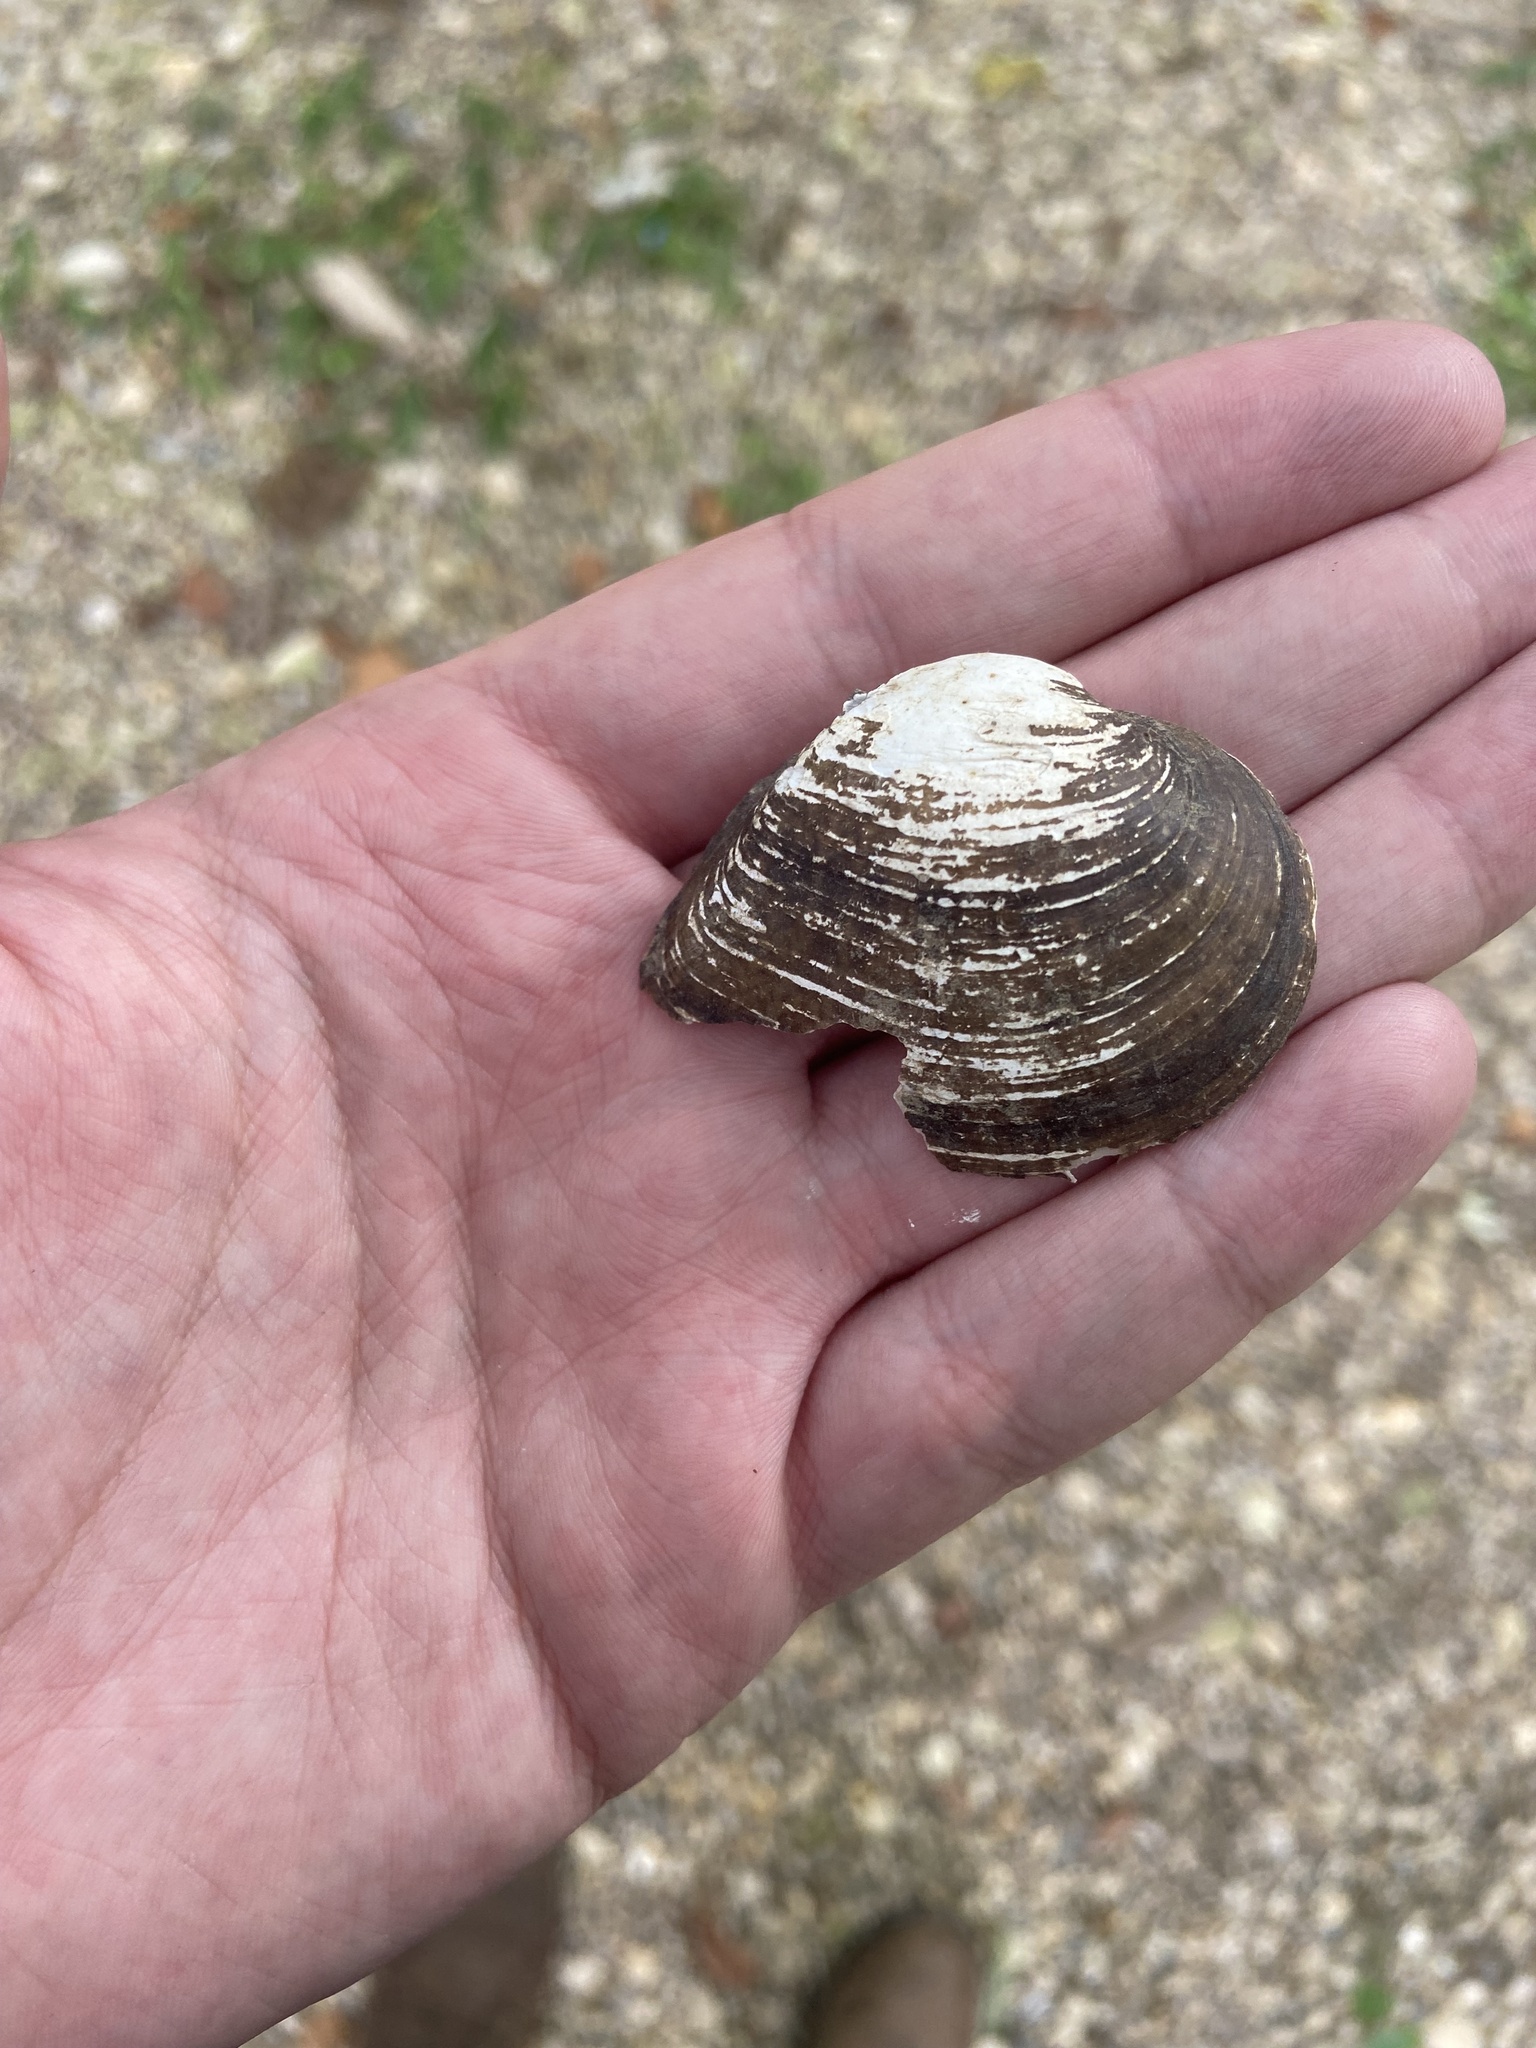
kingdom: Animalia
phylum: Mollusca
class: Bivalvia
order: Unionida
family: Unionidae
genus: Truncilla
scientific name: Truncilla truncata
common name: Deertoe
